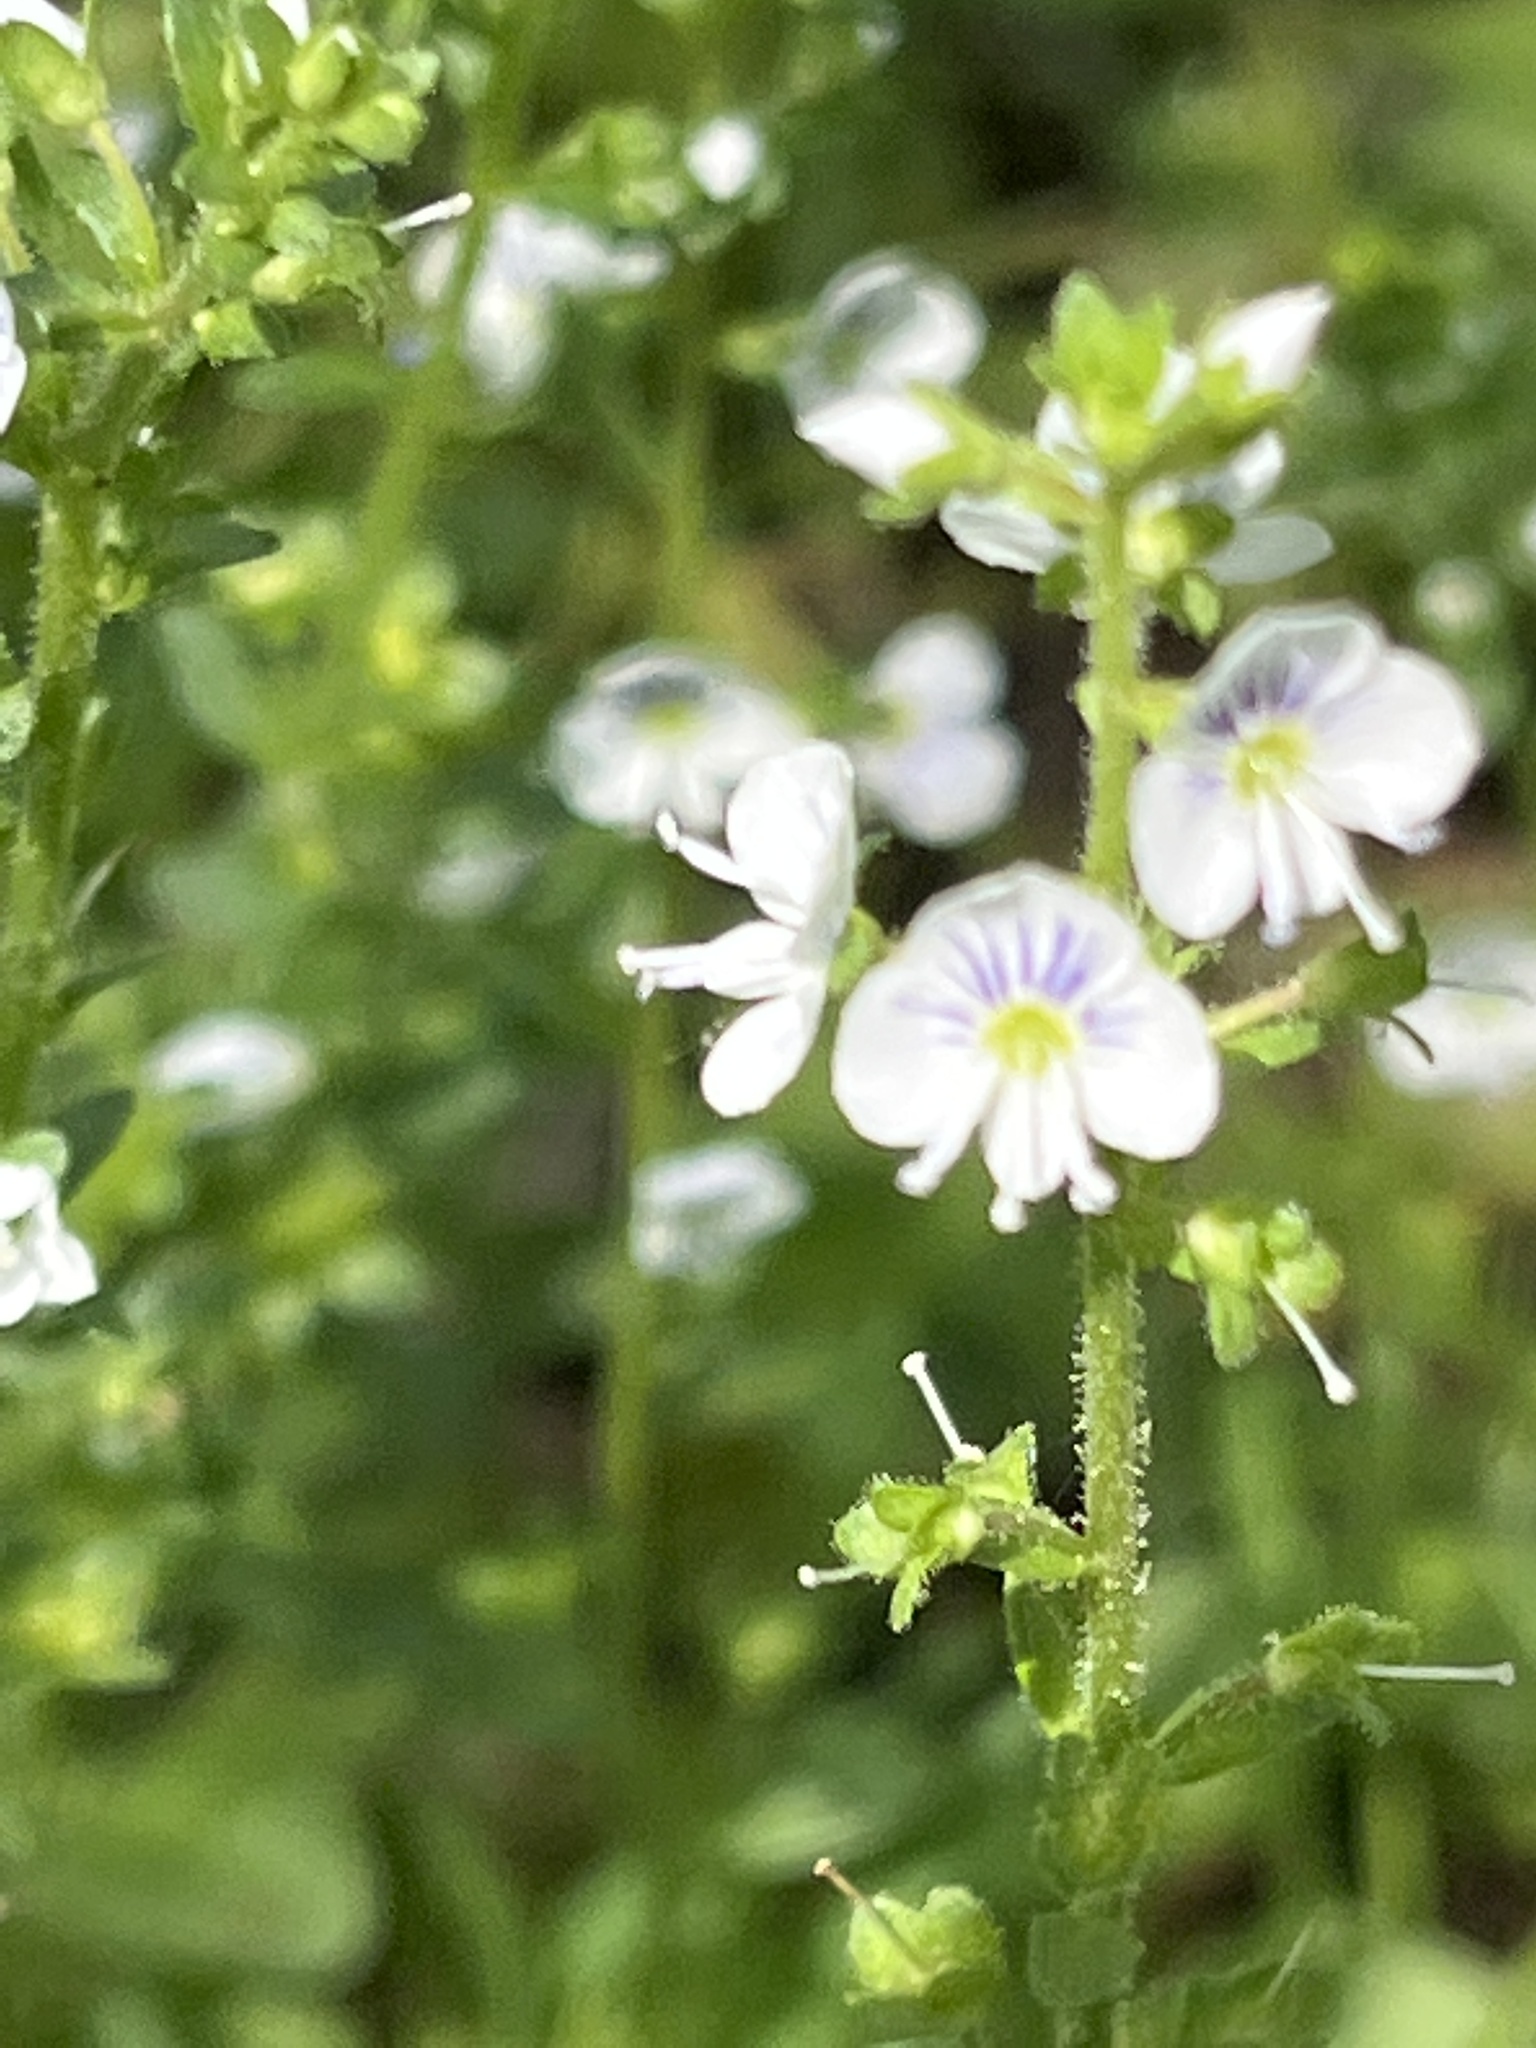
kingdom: Plantae
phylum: Tracheophyta
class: Magnoliopsida
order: Lamiales
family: Plantaginaceae
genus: Veronica
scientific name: Veronica serpyllifolia
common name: Thyme-leaved speedwell
